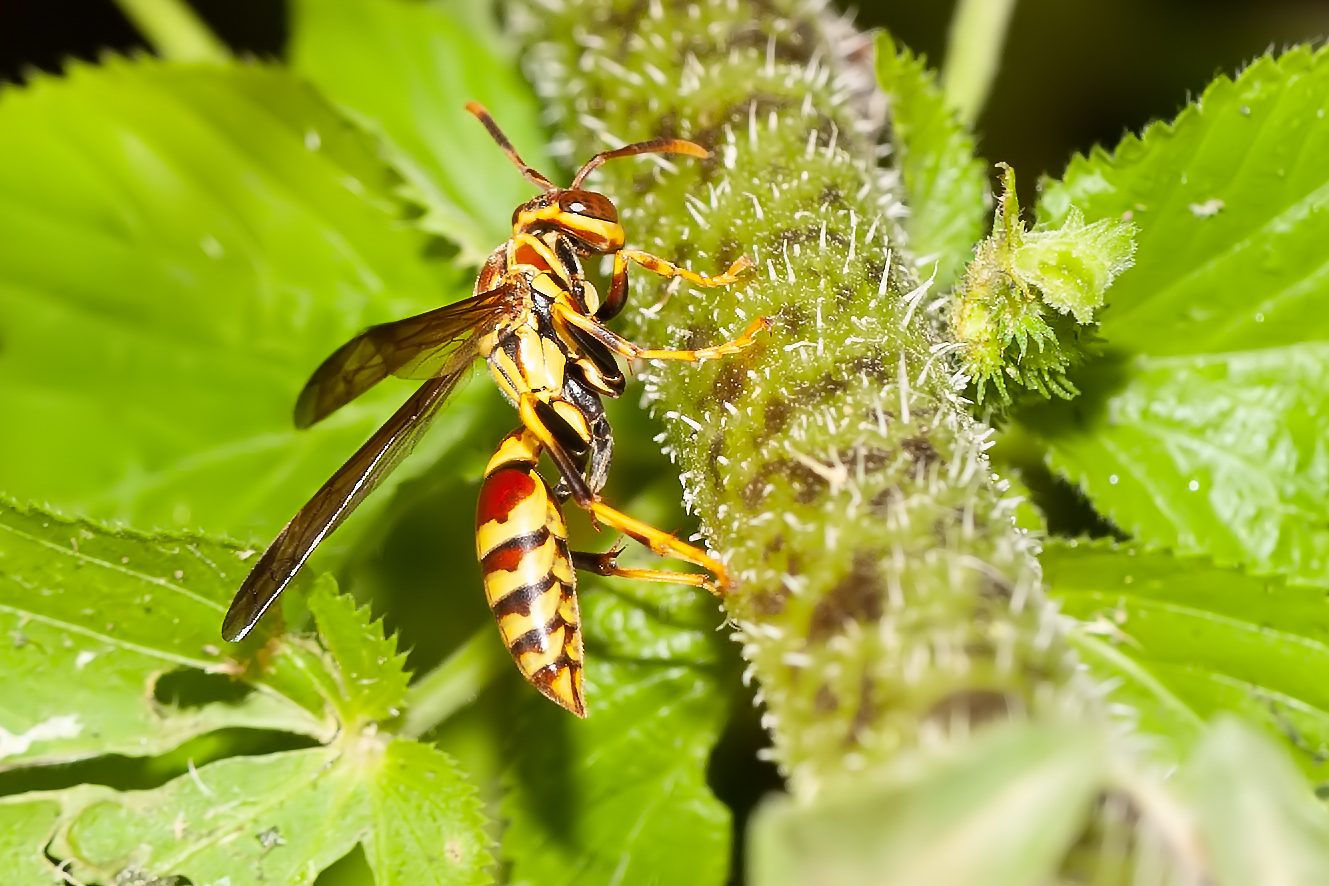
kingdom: Animalia
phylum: Arthropoda
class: Insecta
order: Hymenoptera
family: Eumenidae
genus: Polistes
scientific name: Polistes exclamans
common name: Paper wasp
